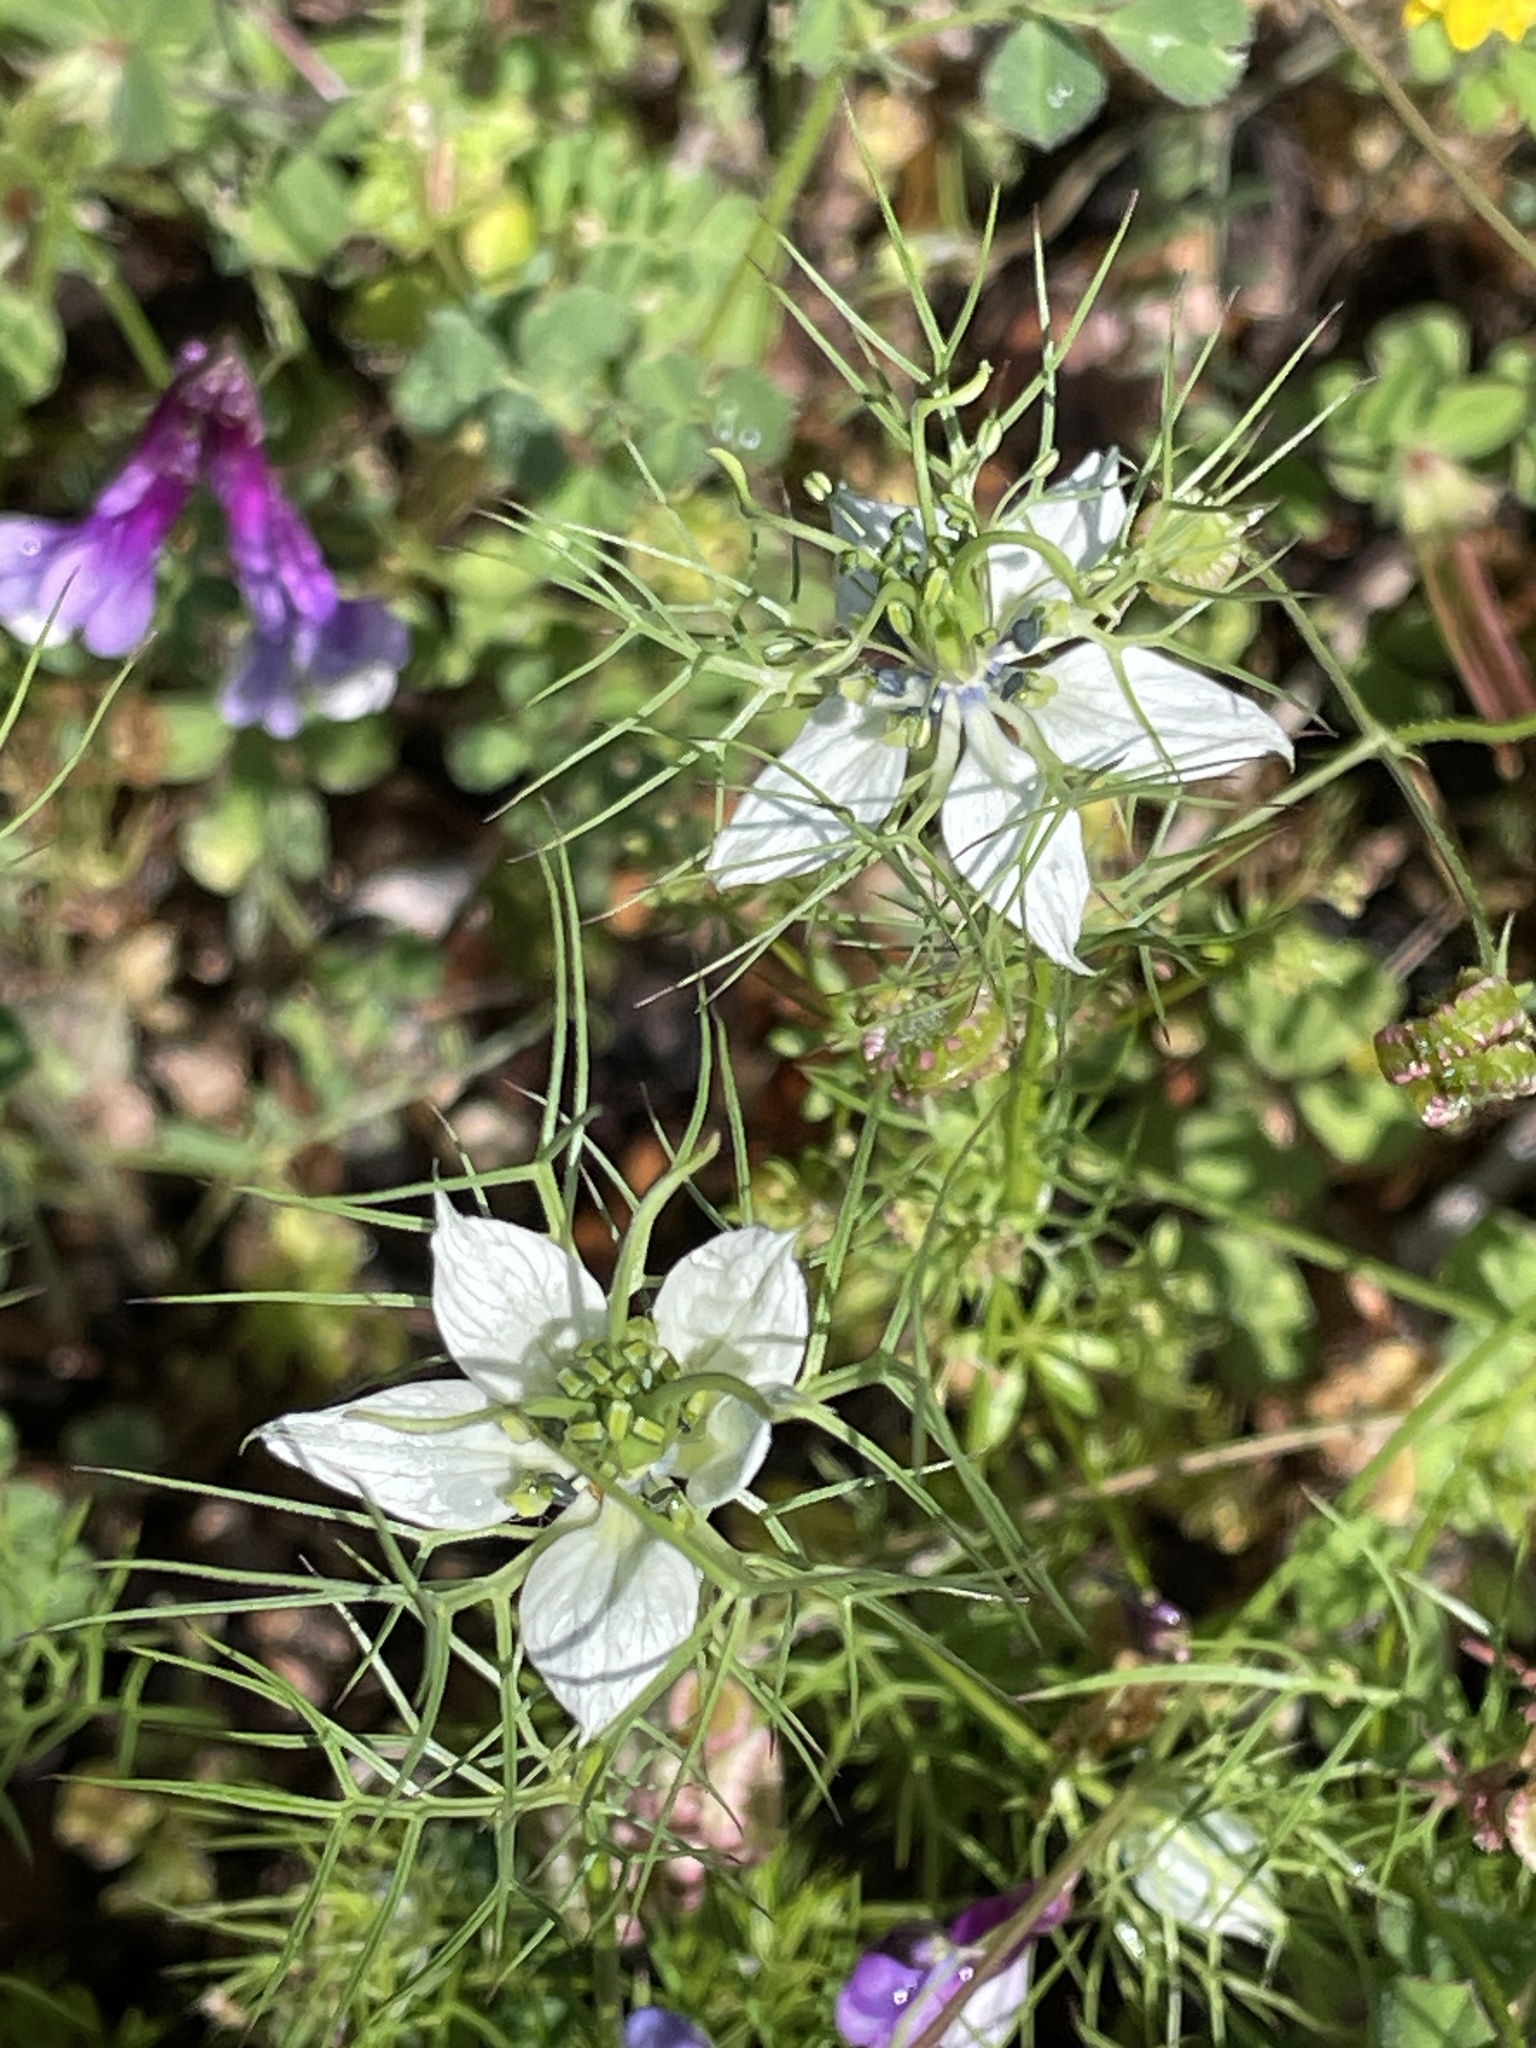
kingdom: Plantae
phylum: Tracheophyta
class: Magnoliopsida
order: Ranunculales
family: Ranunculaceae
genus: Nigella
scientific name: Nigella damascena
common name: Love-in-a-mist
